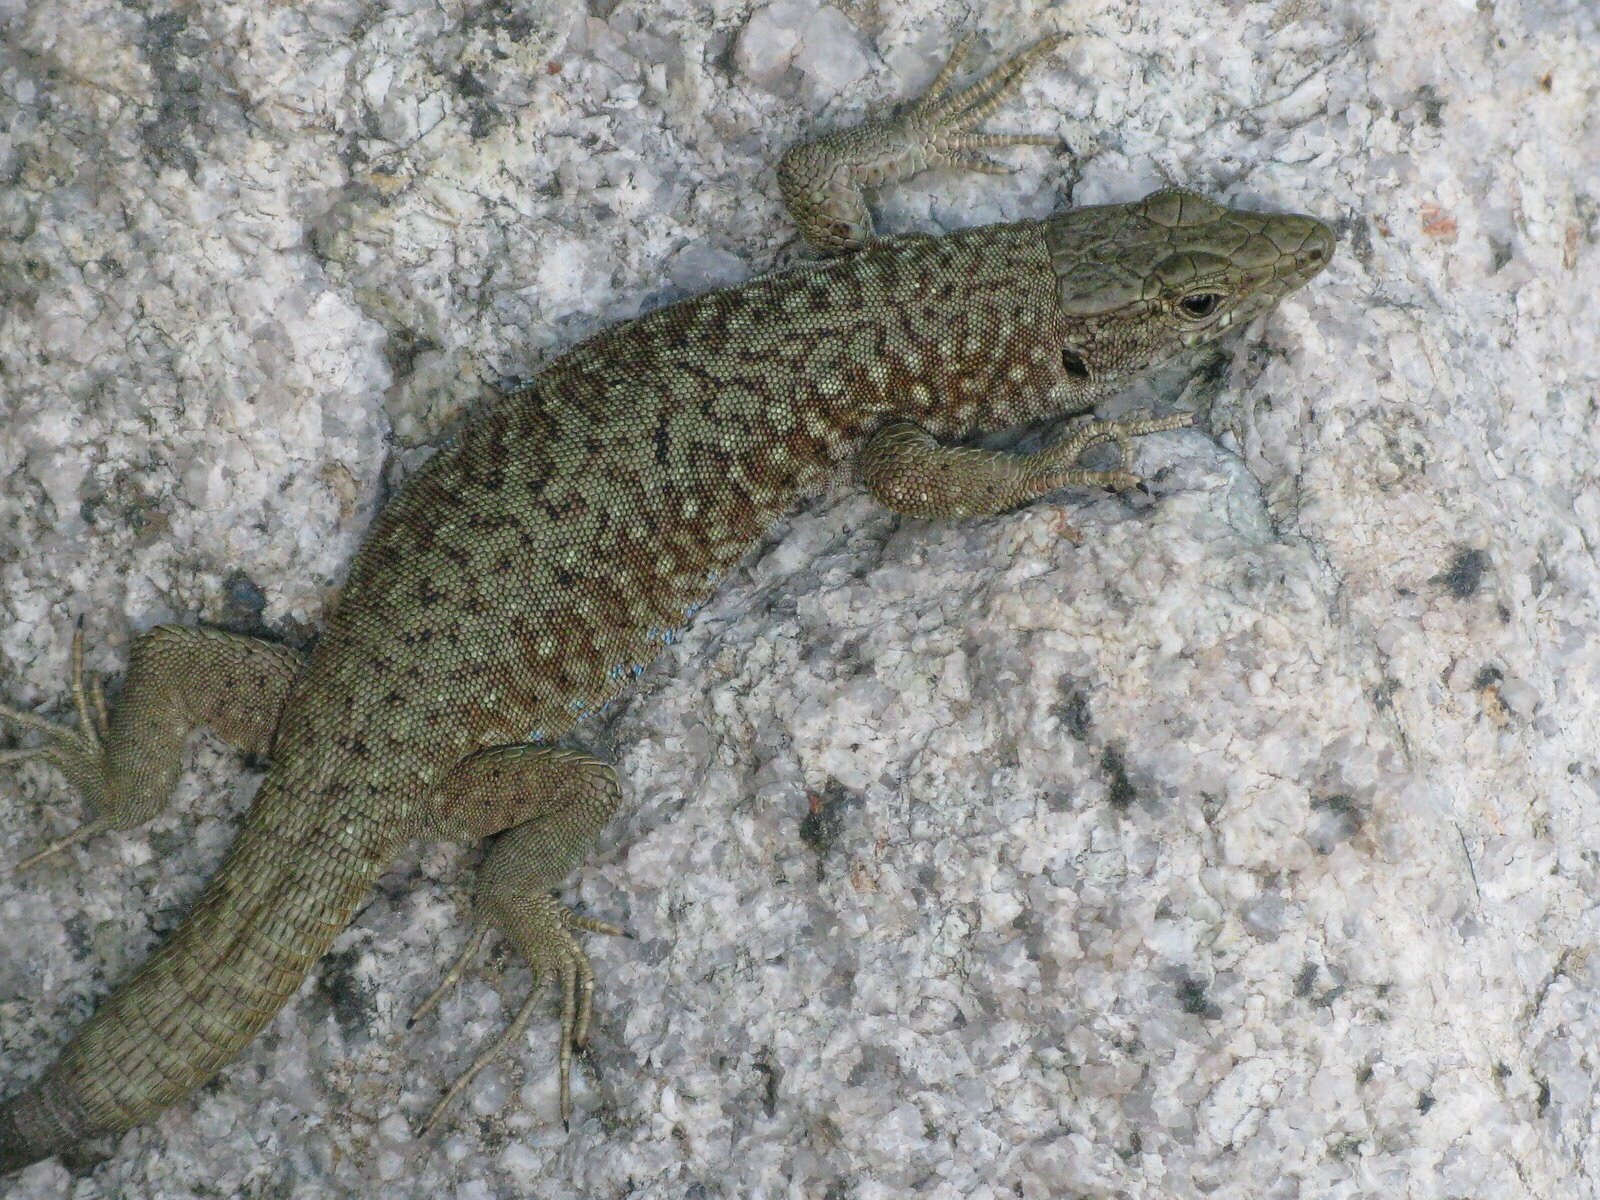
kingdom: Animalia
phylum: Chordata
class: Squamata
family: Lacertidae
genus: Archaeolacerta
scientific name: Archaeolacerta bedriagae
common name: Bedriaga's rock lizard
